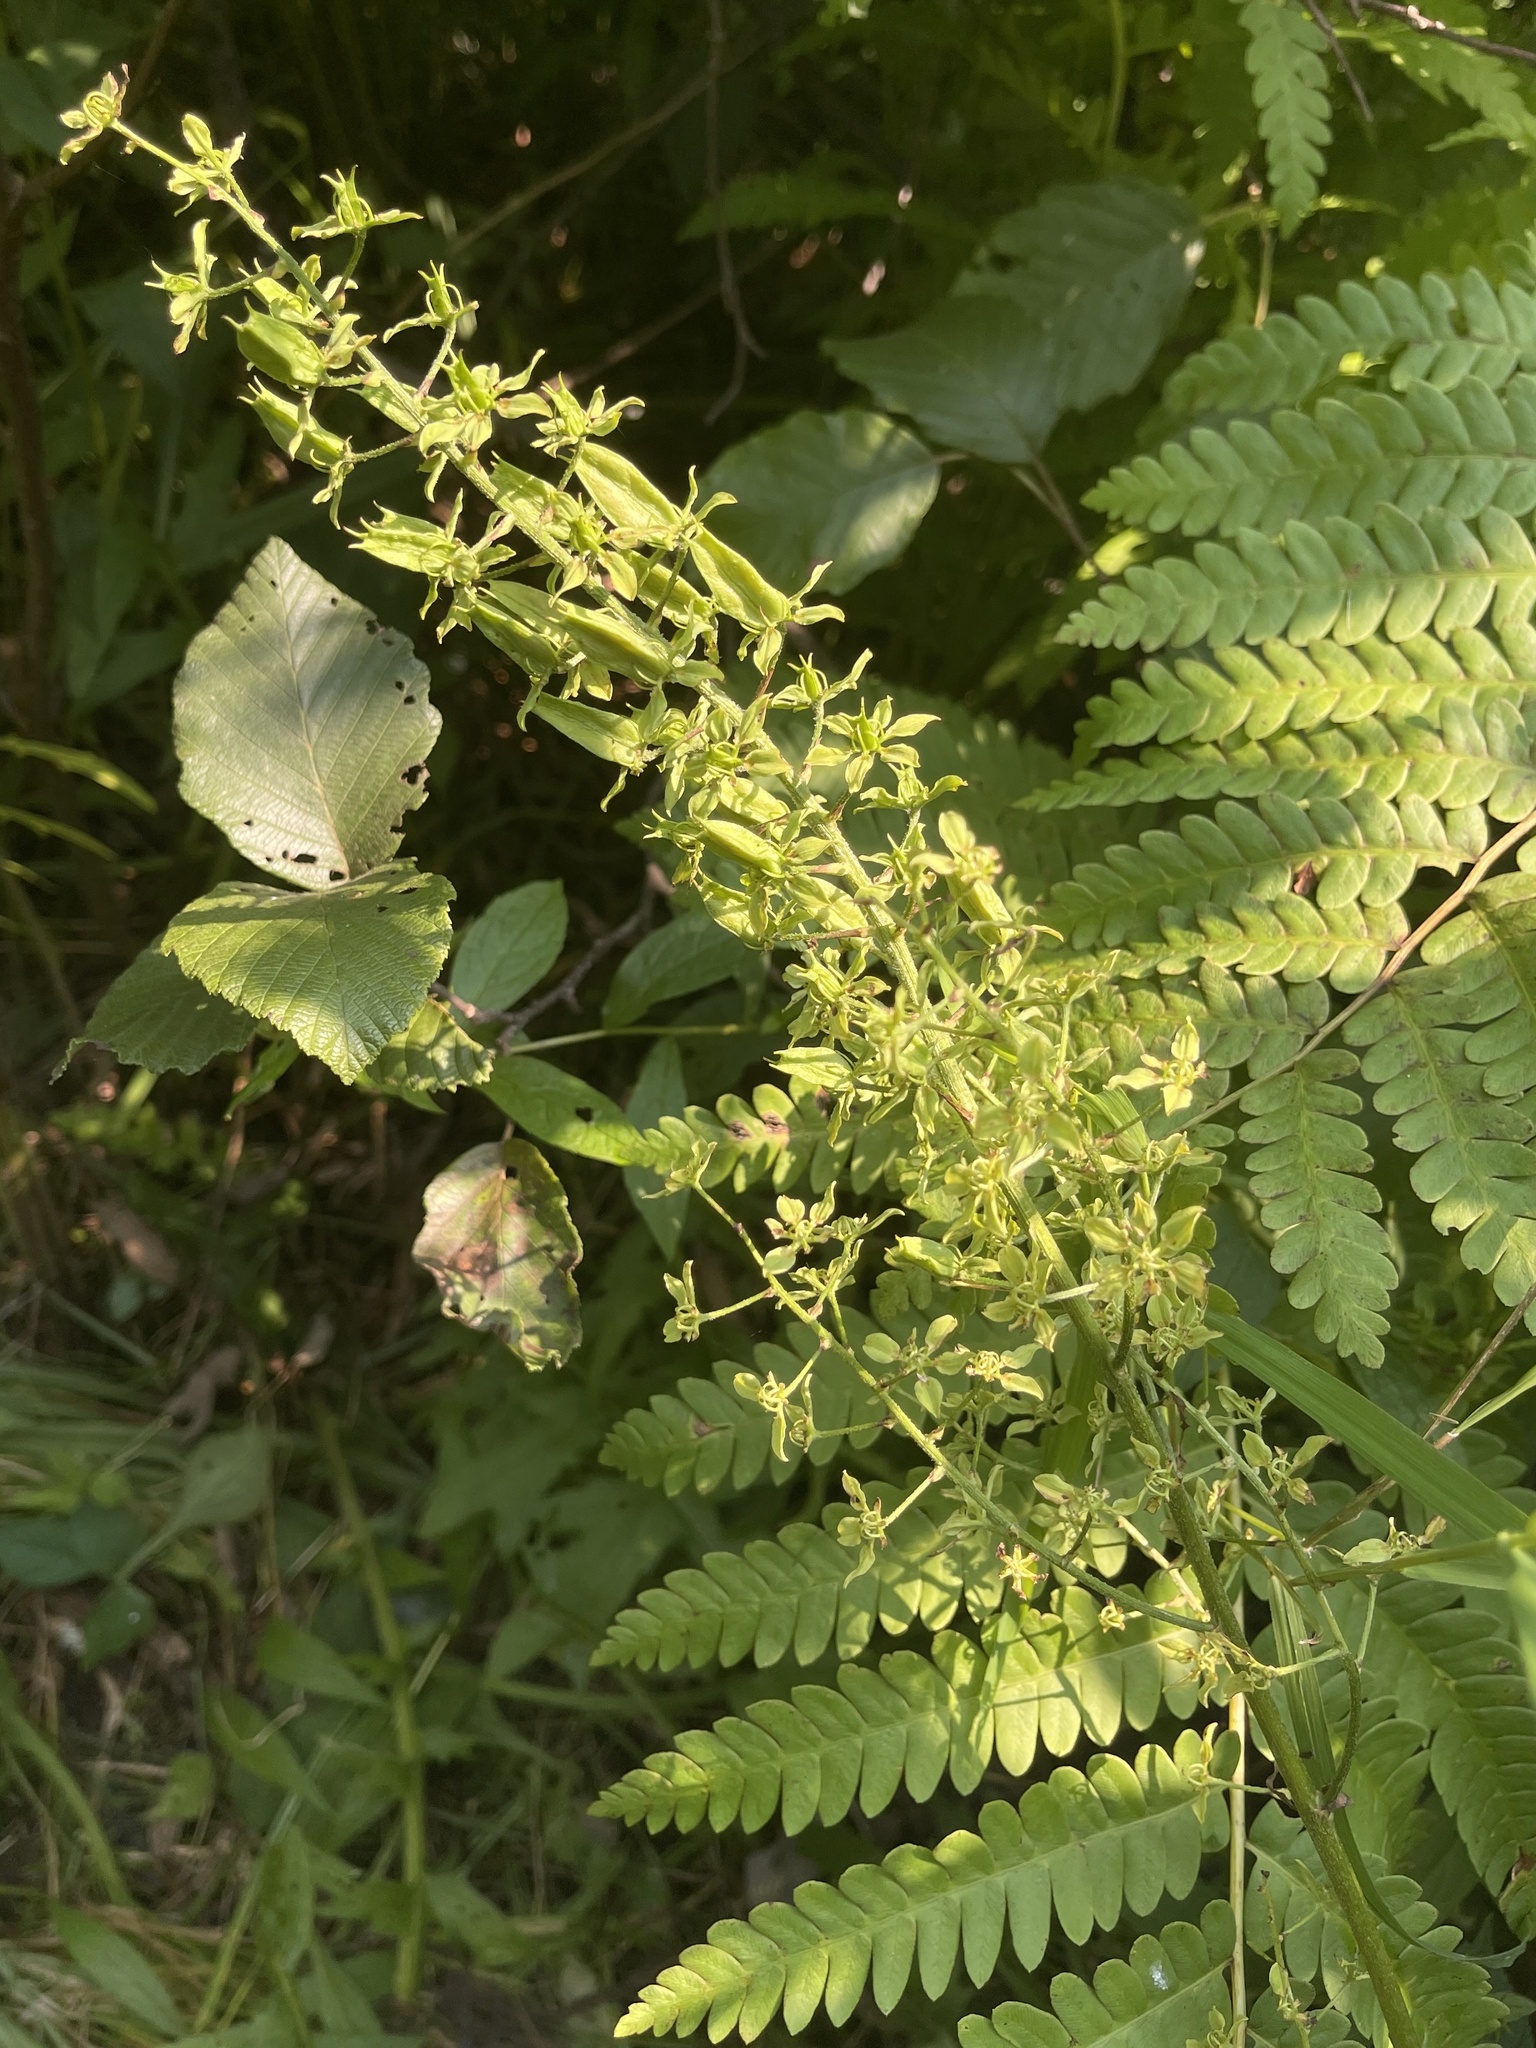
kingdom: Plantae
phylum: Tracheophyta
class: Liliopsida
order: Liliales
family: Melanthiaceae
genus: Melanthium
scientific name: Melanthium virginicum
